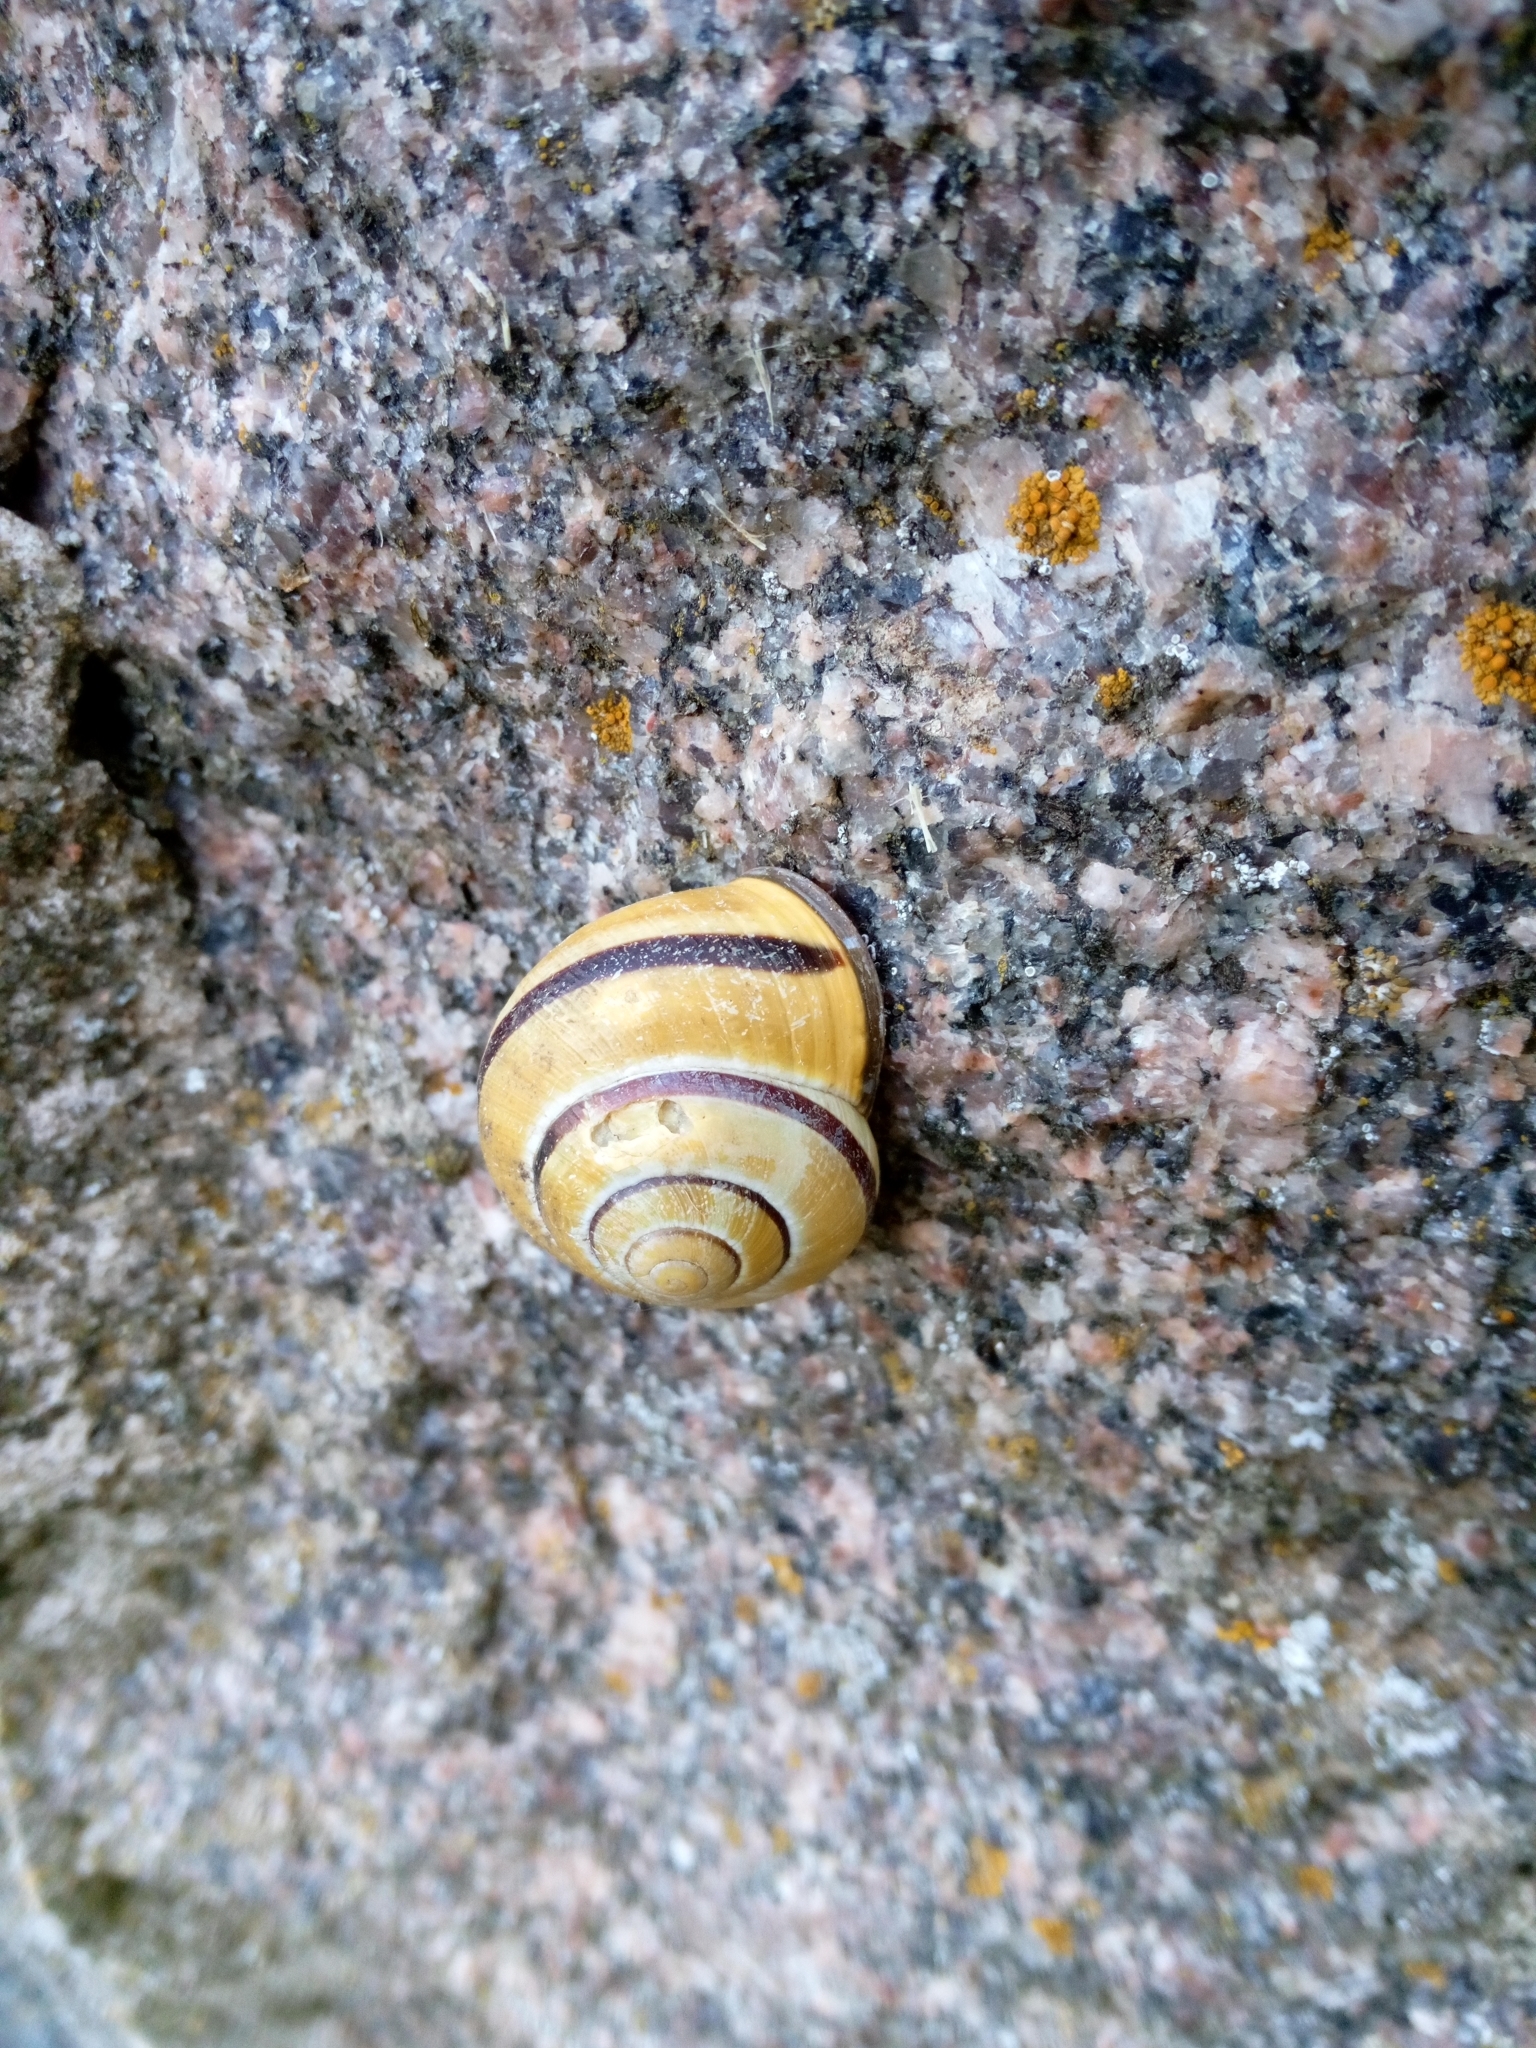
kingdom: Animalia
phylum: Mollusca
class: Gastropoda
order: Stylommatophora
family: Helicidae
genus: Cepaea
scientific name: Cepaea nemoralis
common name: Grovesnail
